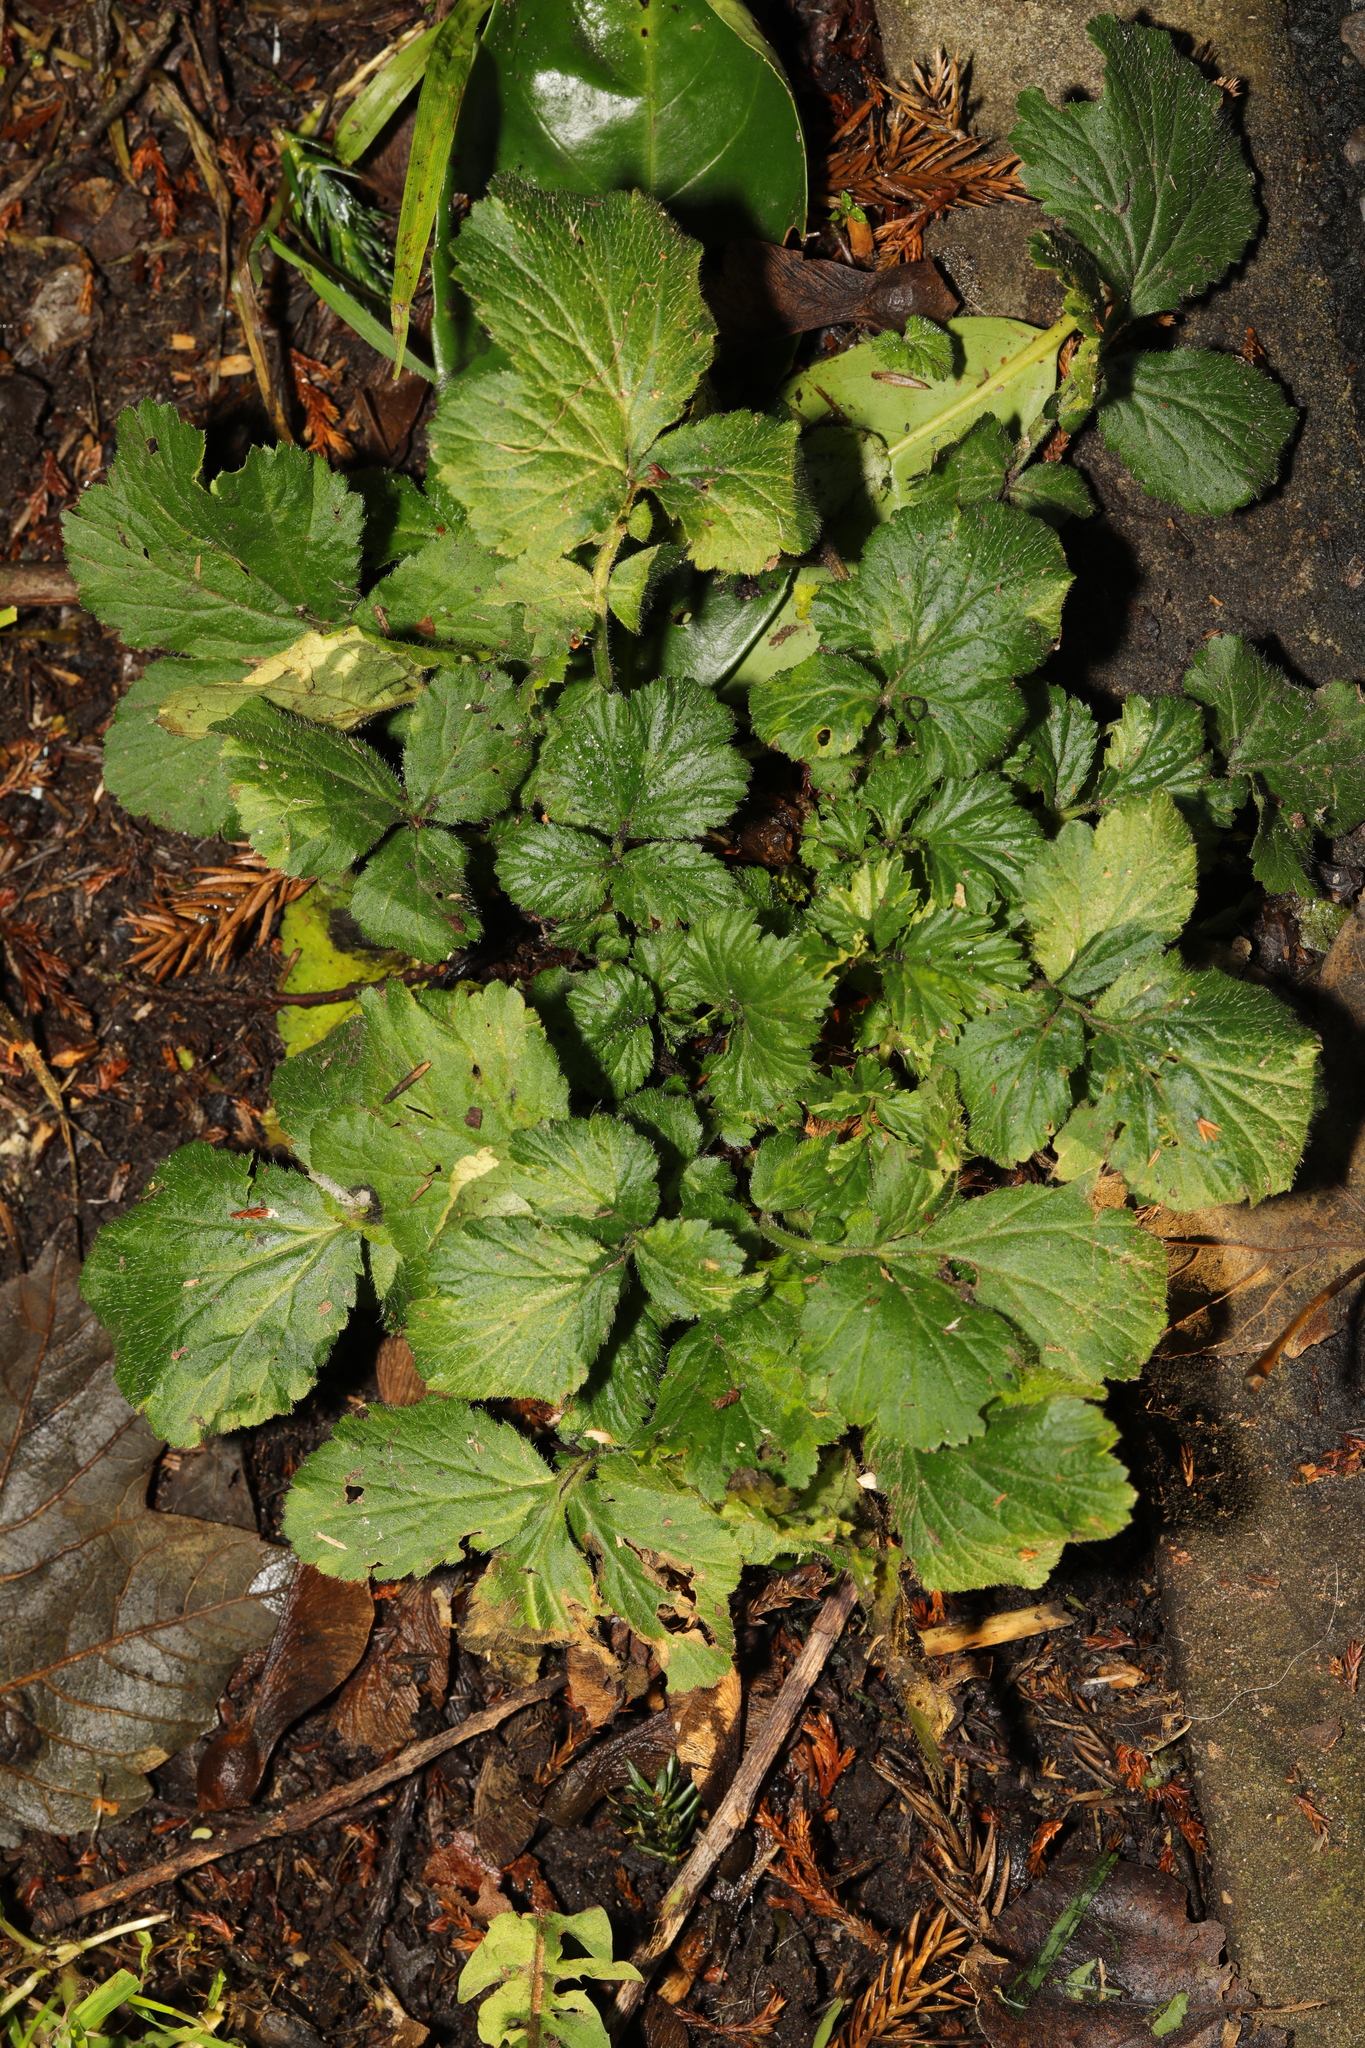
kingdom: Plantae
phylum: Tracheophyta
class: Magnoliopsida
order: Rosales
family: Rosaceae
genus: Geum
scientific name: Geum urbanum
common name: Wood avens
